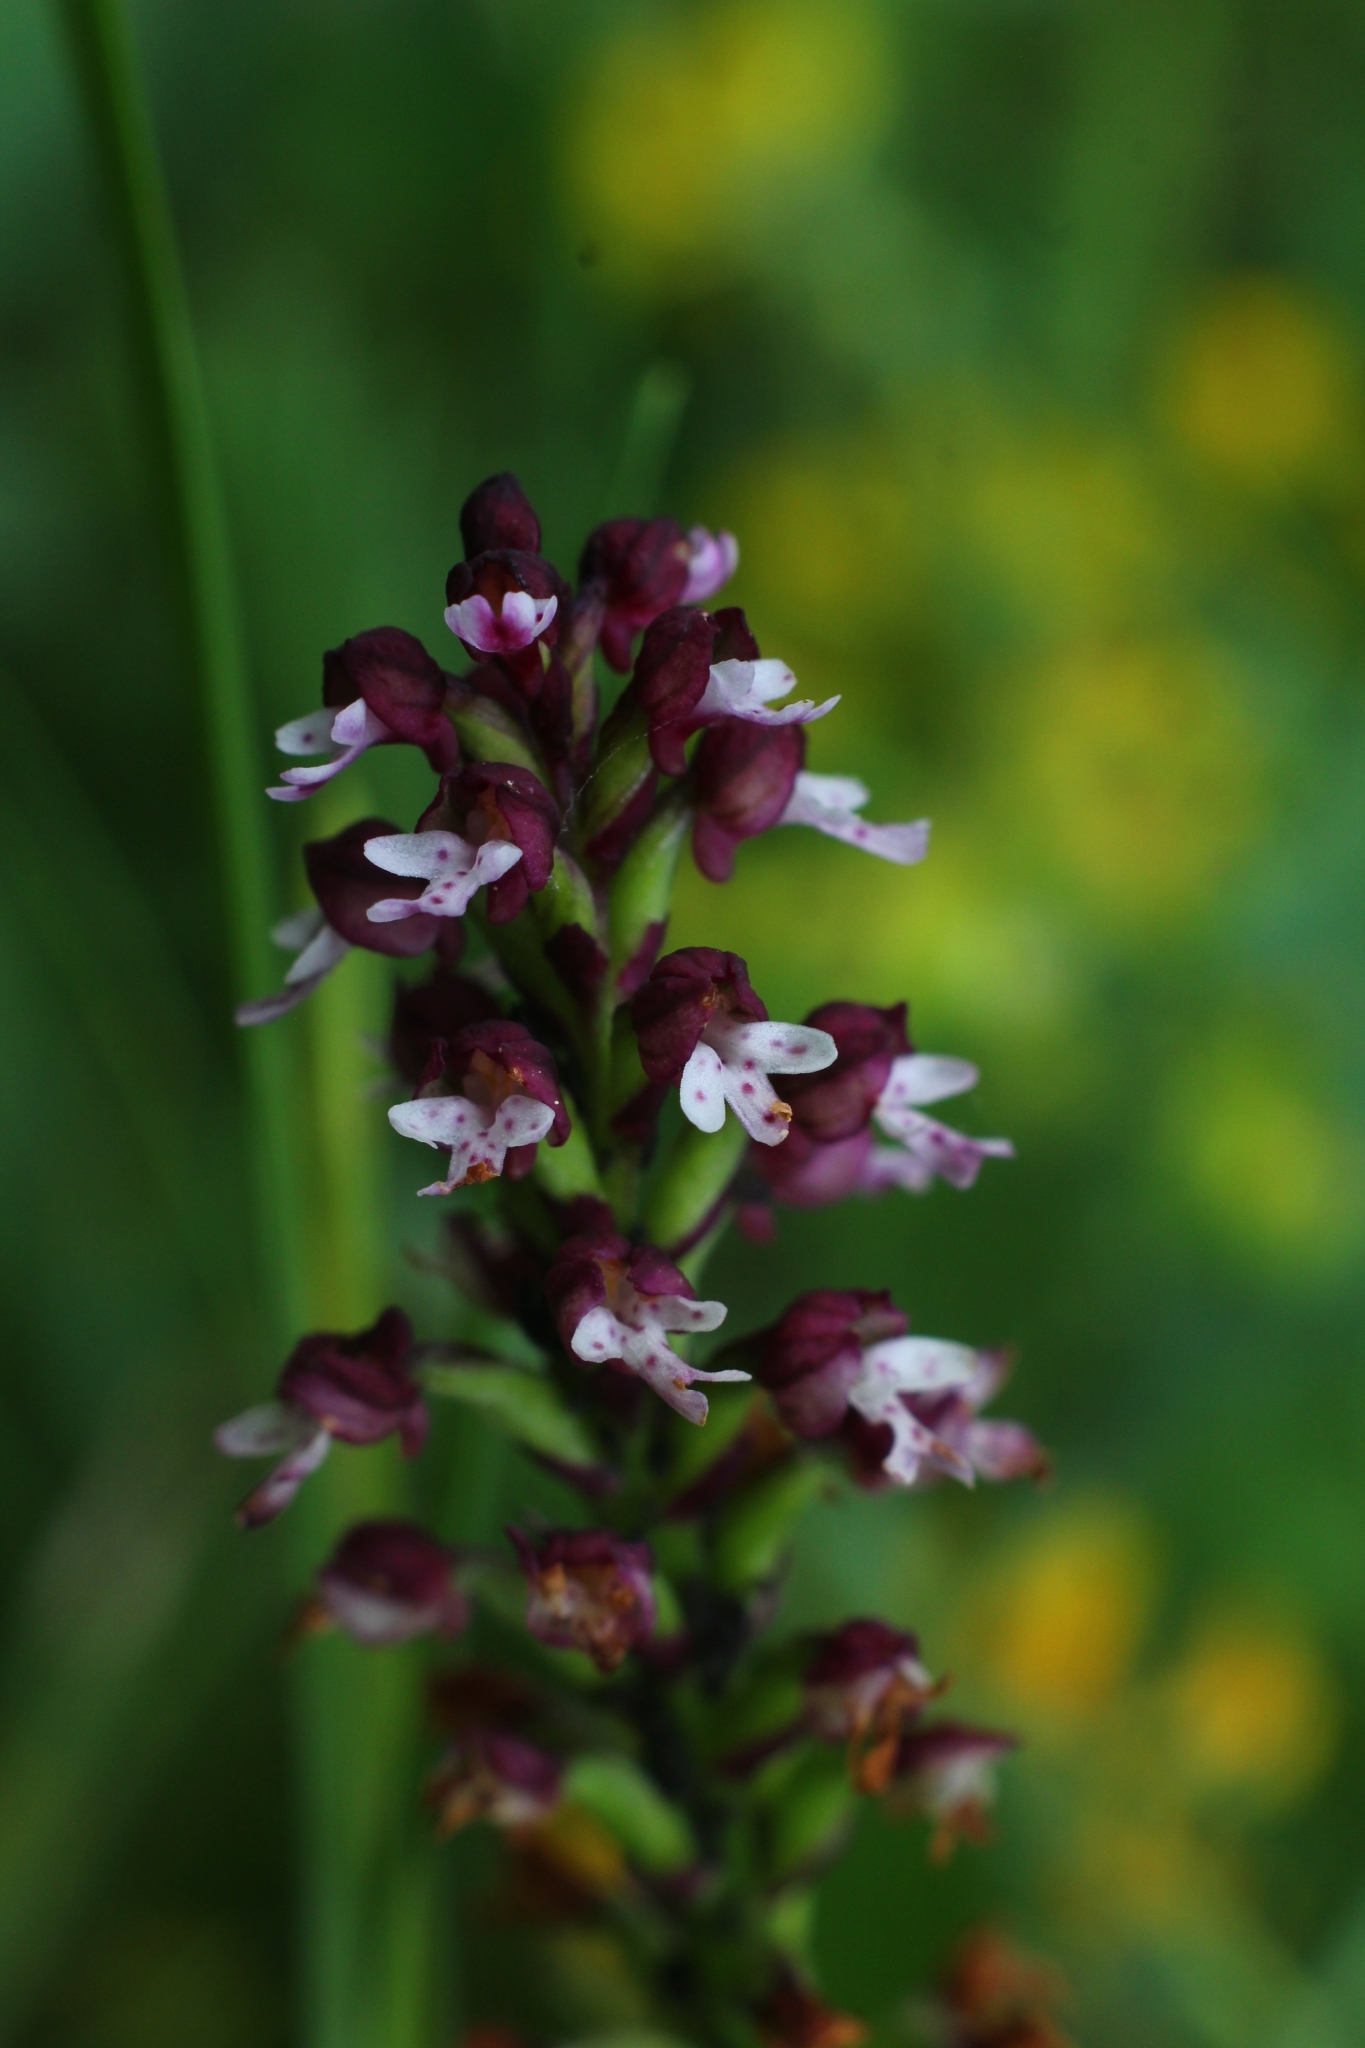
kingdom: Plantae
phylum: Tracheophyta
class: Liliopsida
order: Asparagales
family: Orchidaceae
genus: Neotinea
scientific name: Neotinea ustulata
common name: Burnt orchid
